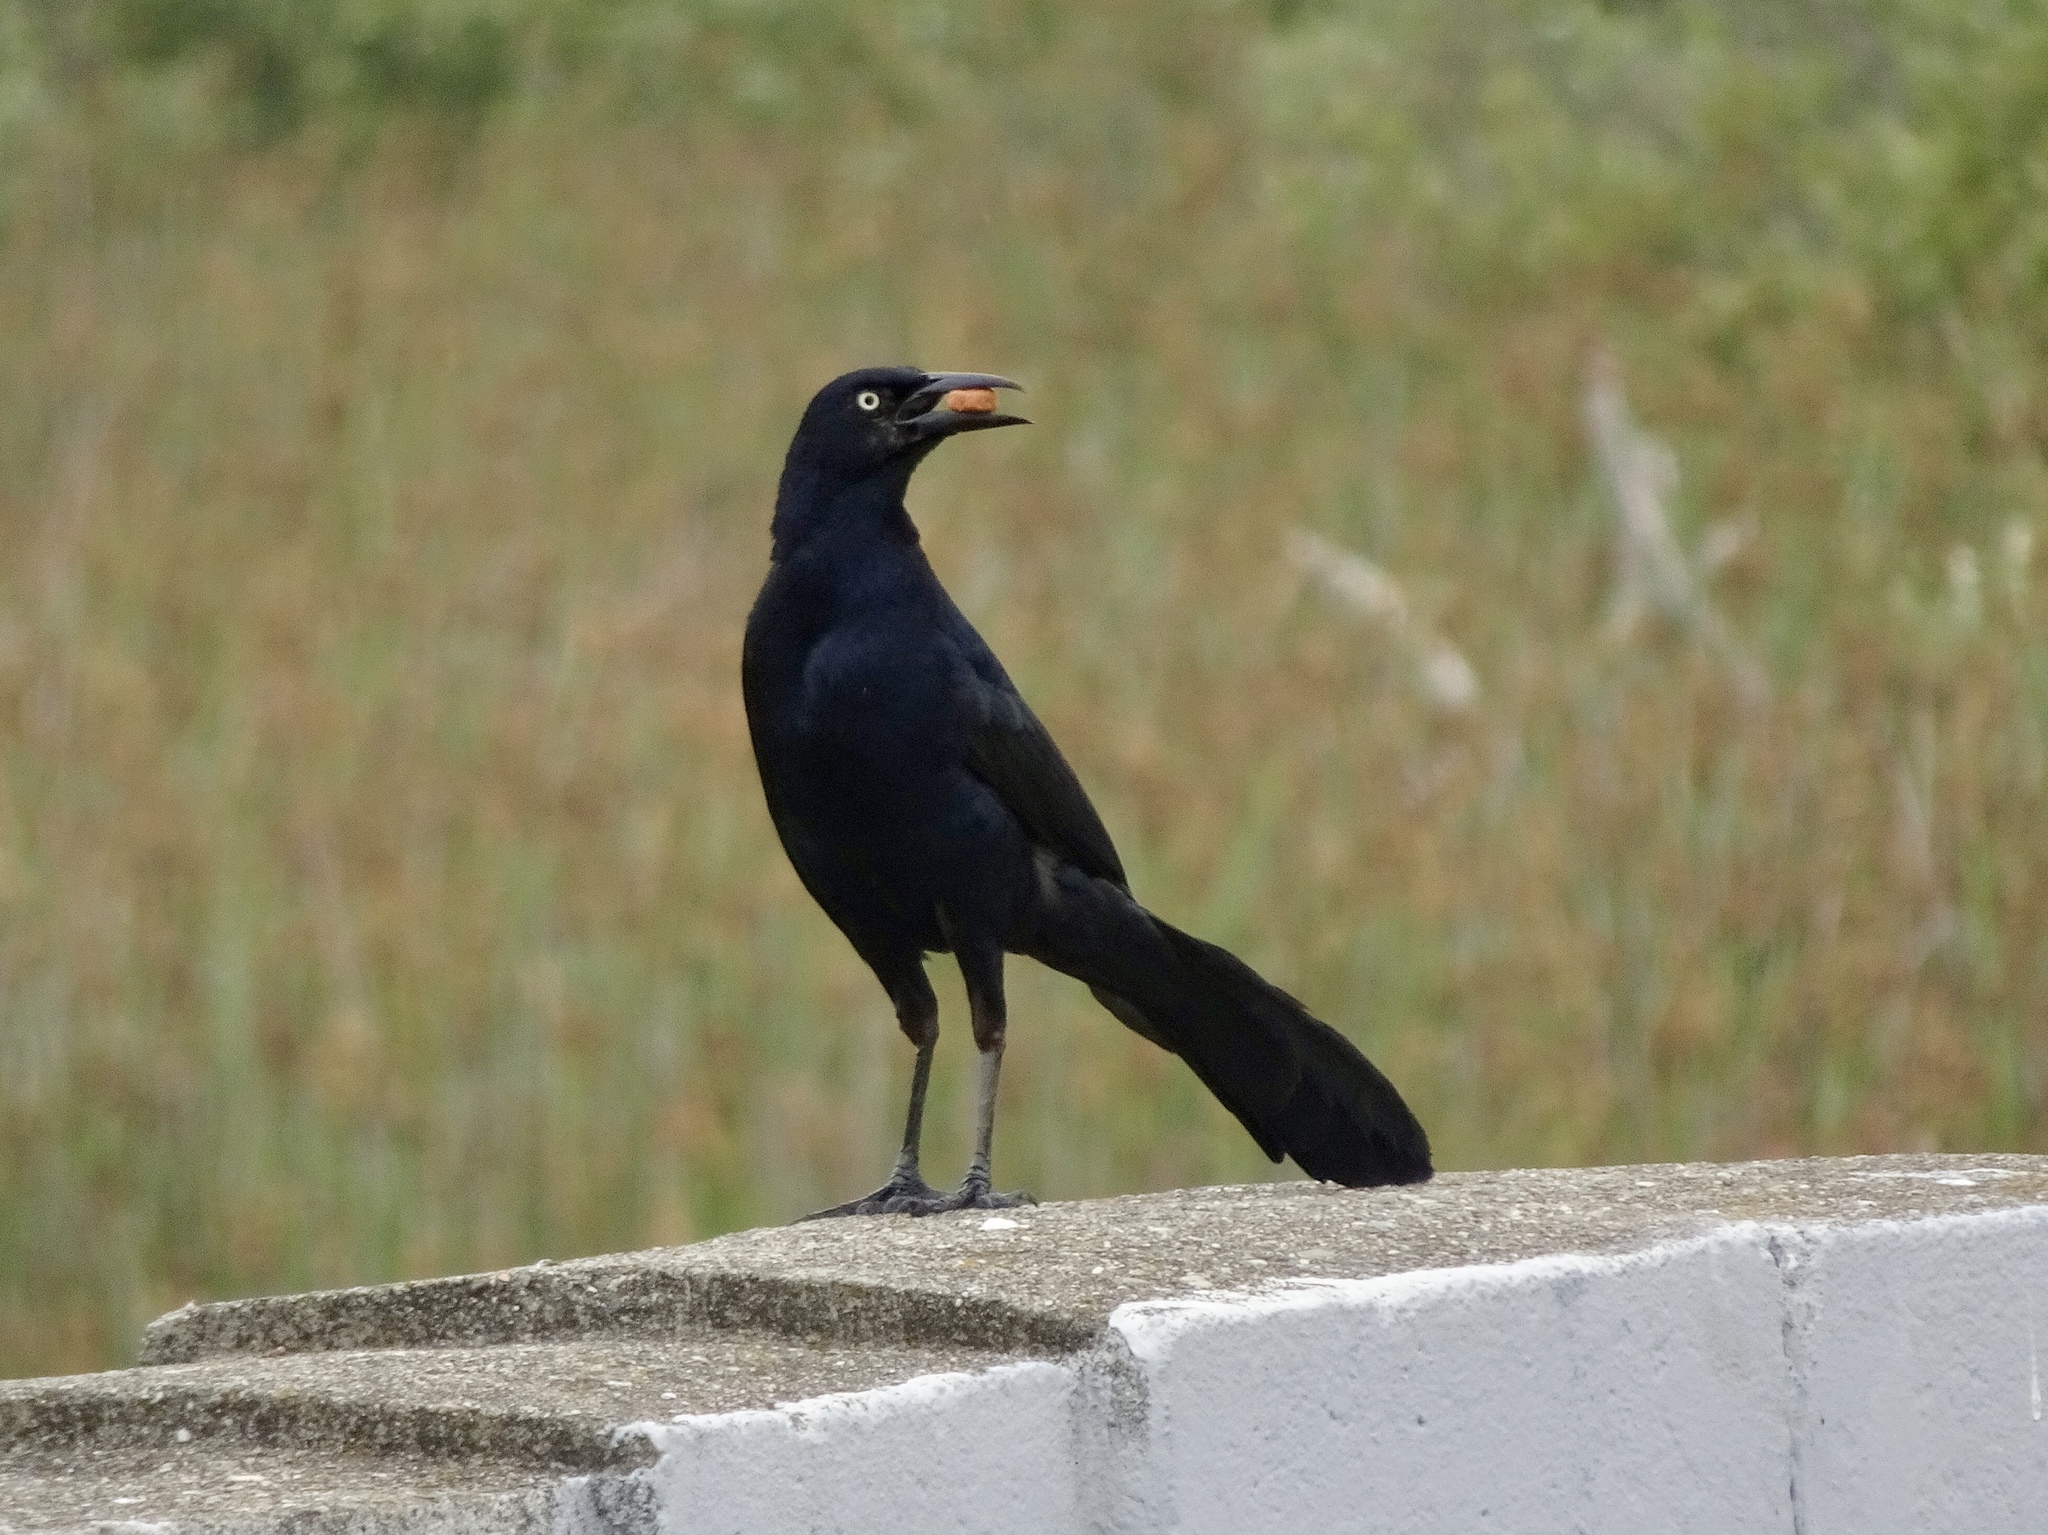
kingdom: Animalia
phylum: Chordata
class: Aves
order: Passeriformes
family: Icteridae
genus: Quiscalus
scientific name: Quiscalus mexicanus
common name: Great-tailed grackle
